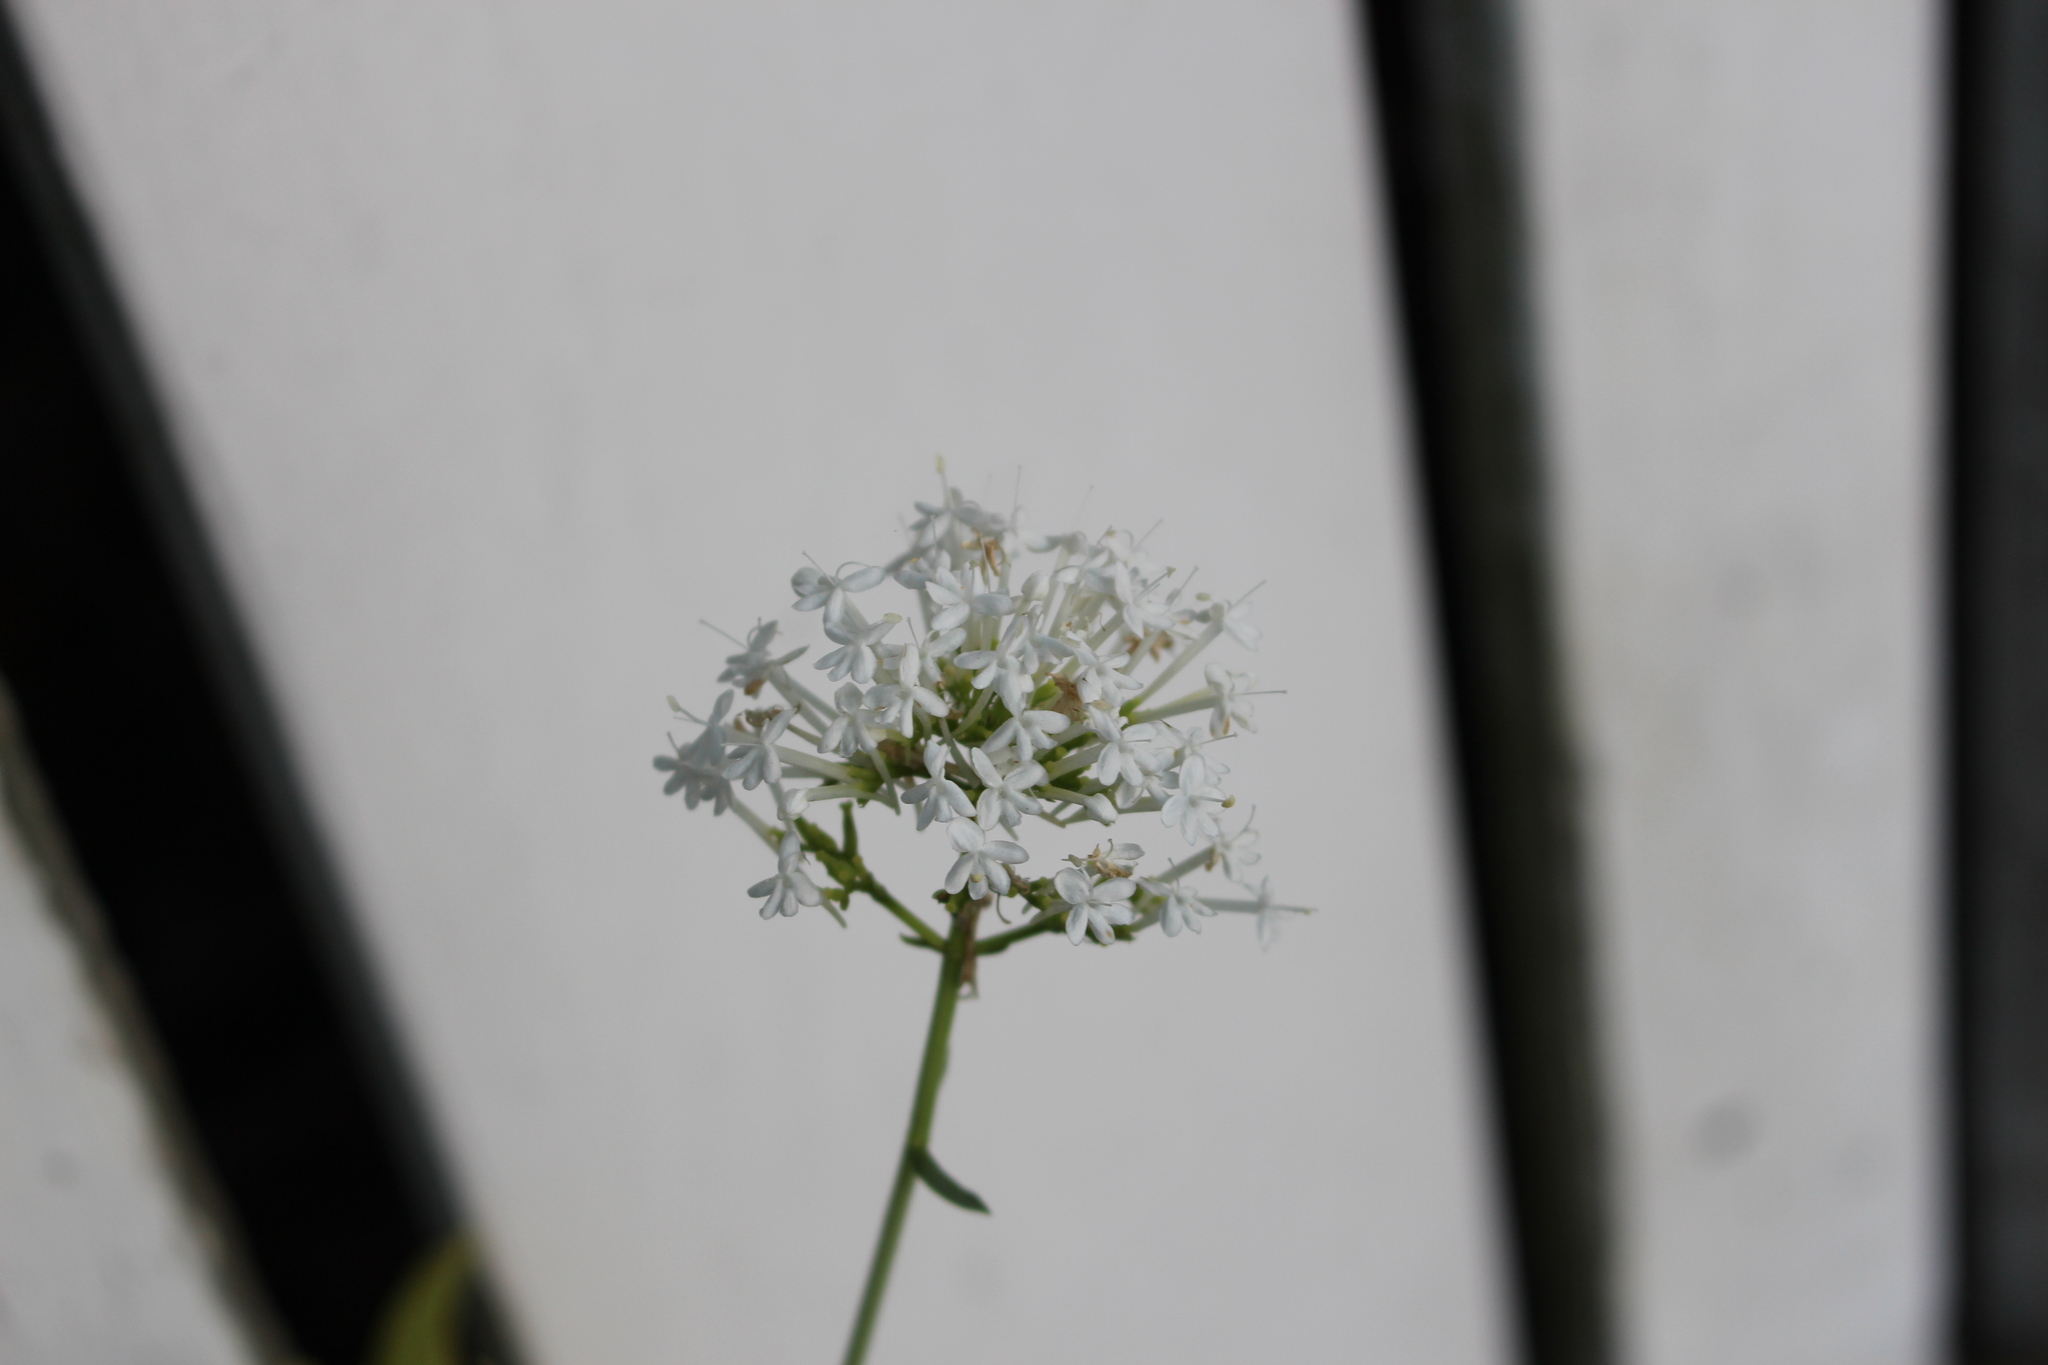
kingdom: Plantae
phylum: Tracheophyta
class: Magnoliopsida
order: Dipsacales
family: Caprifoliaceae
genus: Centranthus
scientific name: Centranthus ruber
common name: Red valerian
